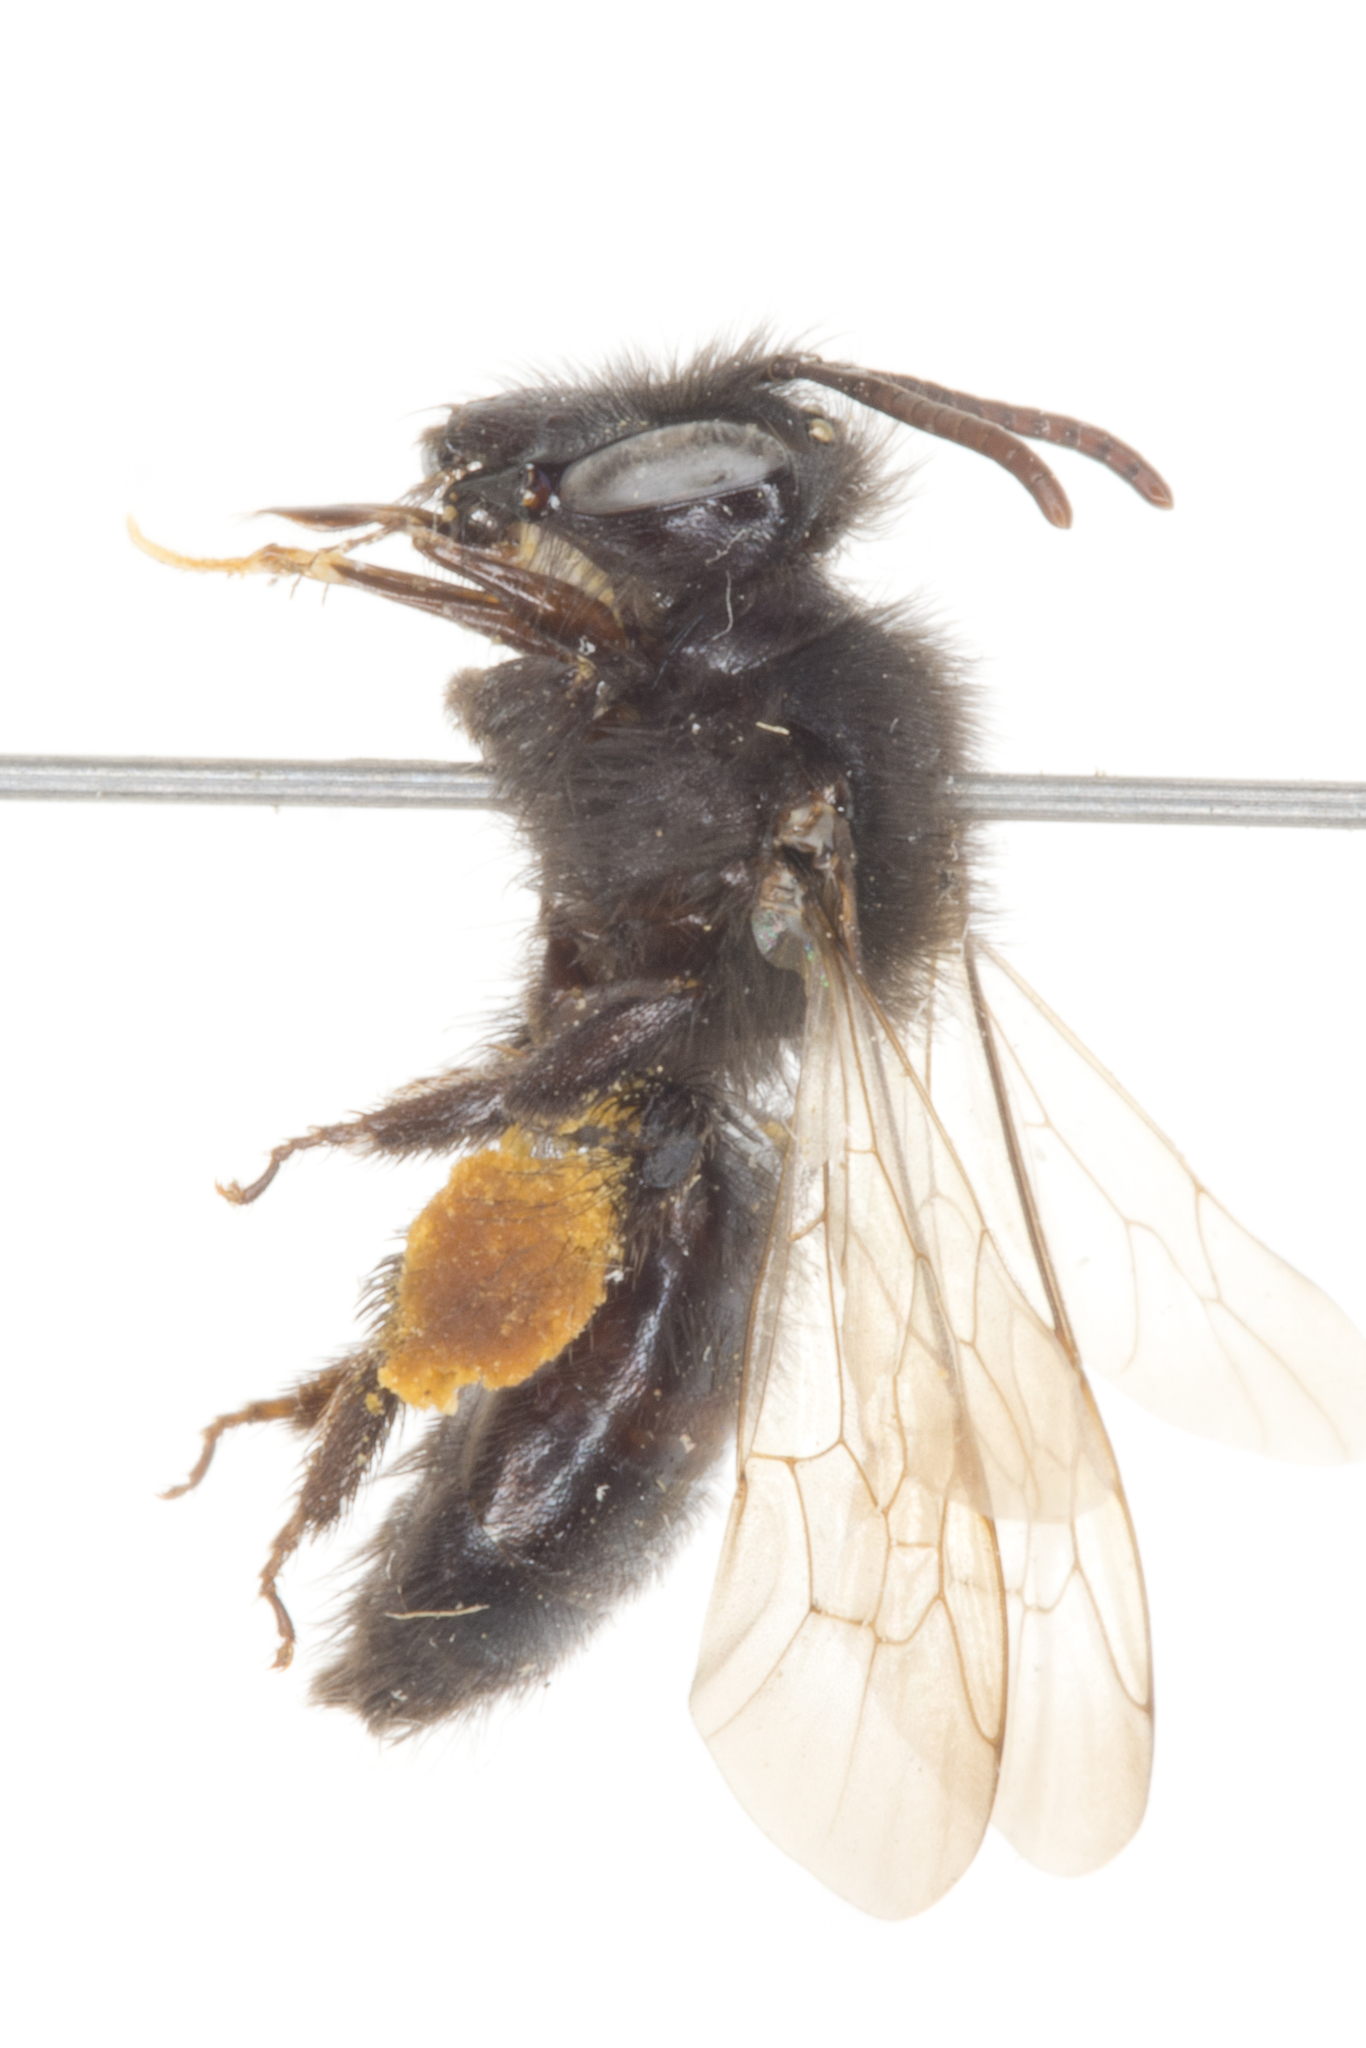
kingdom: Animalia
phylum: Arthropoda
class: Insecta
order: Hymenoptera
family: Andrenidae
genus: Andrena
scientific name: Andrena porterae
